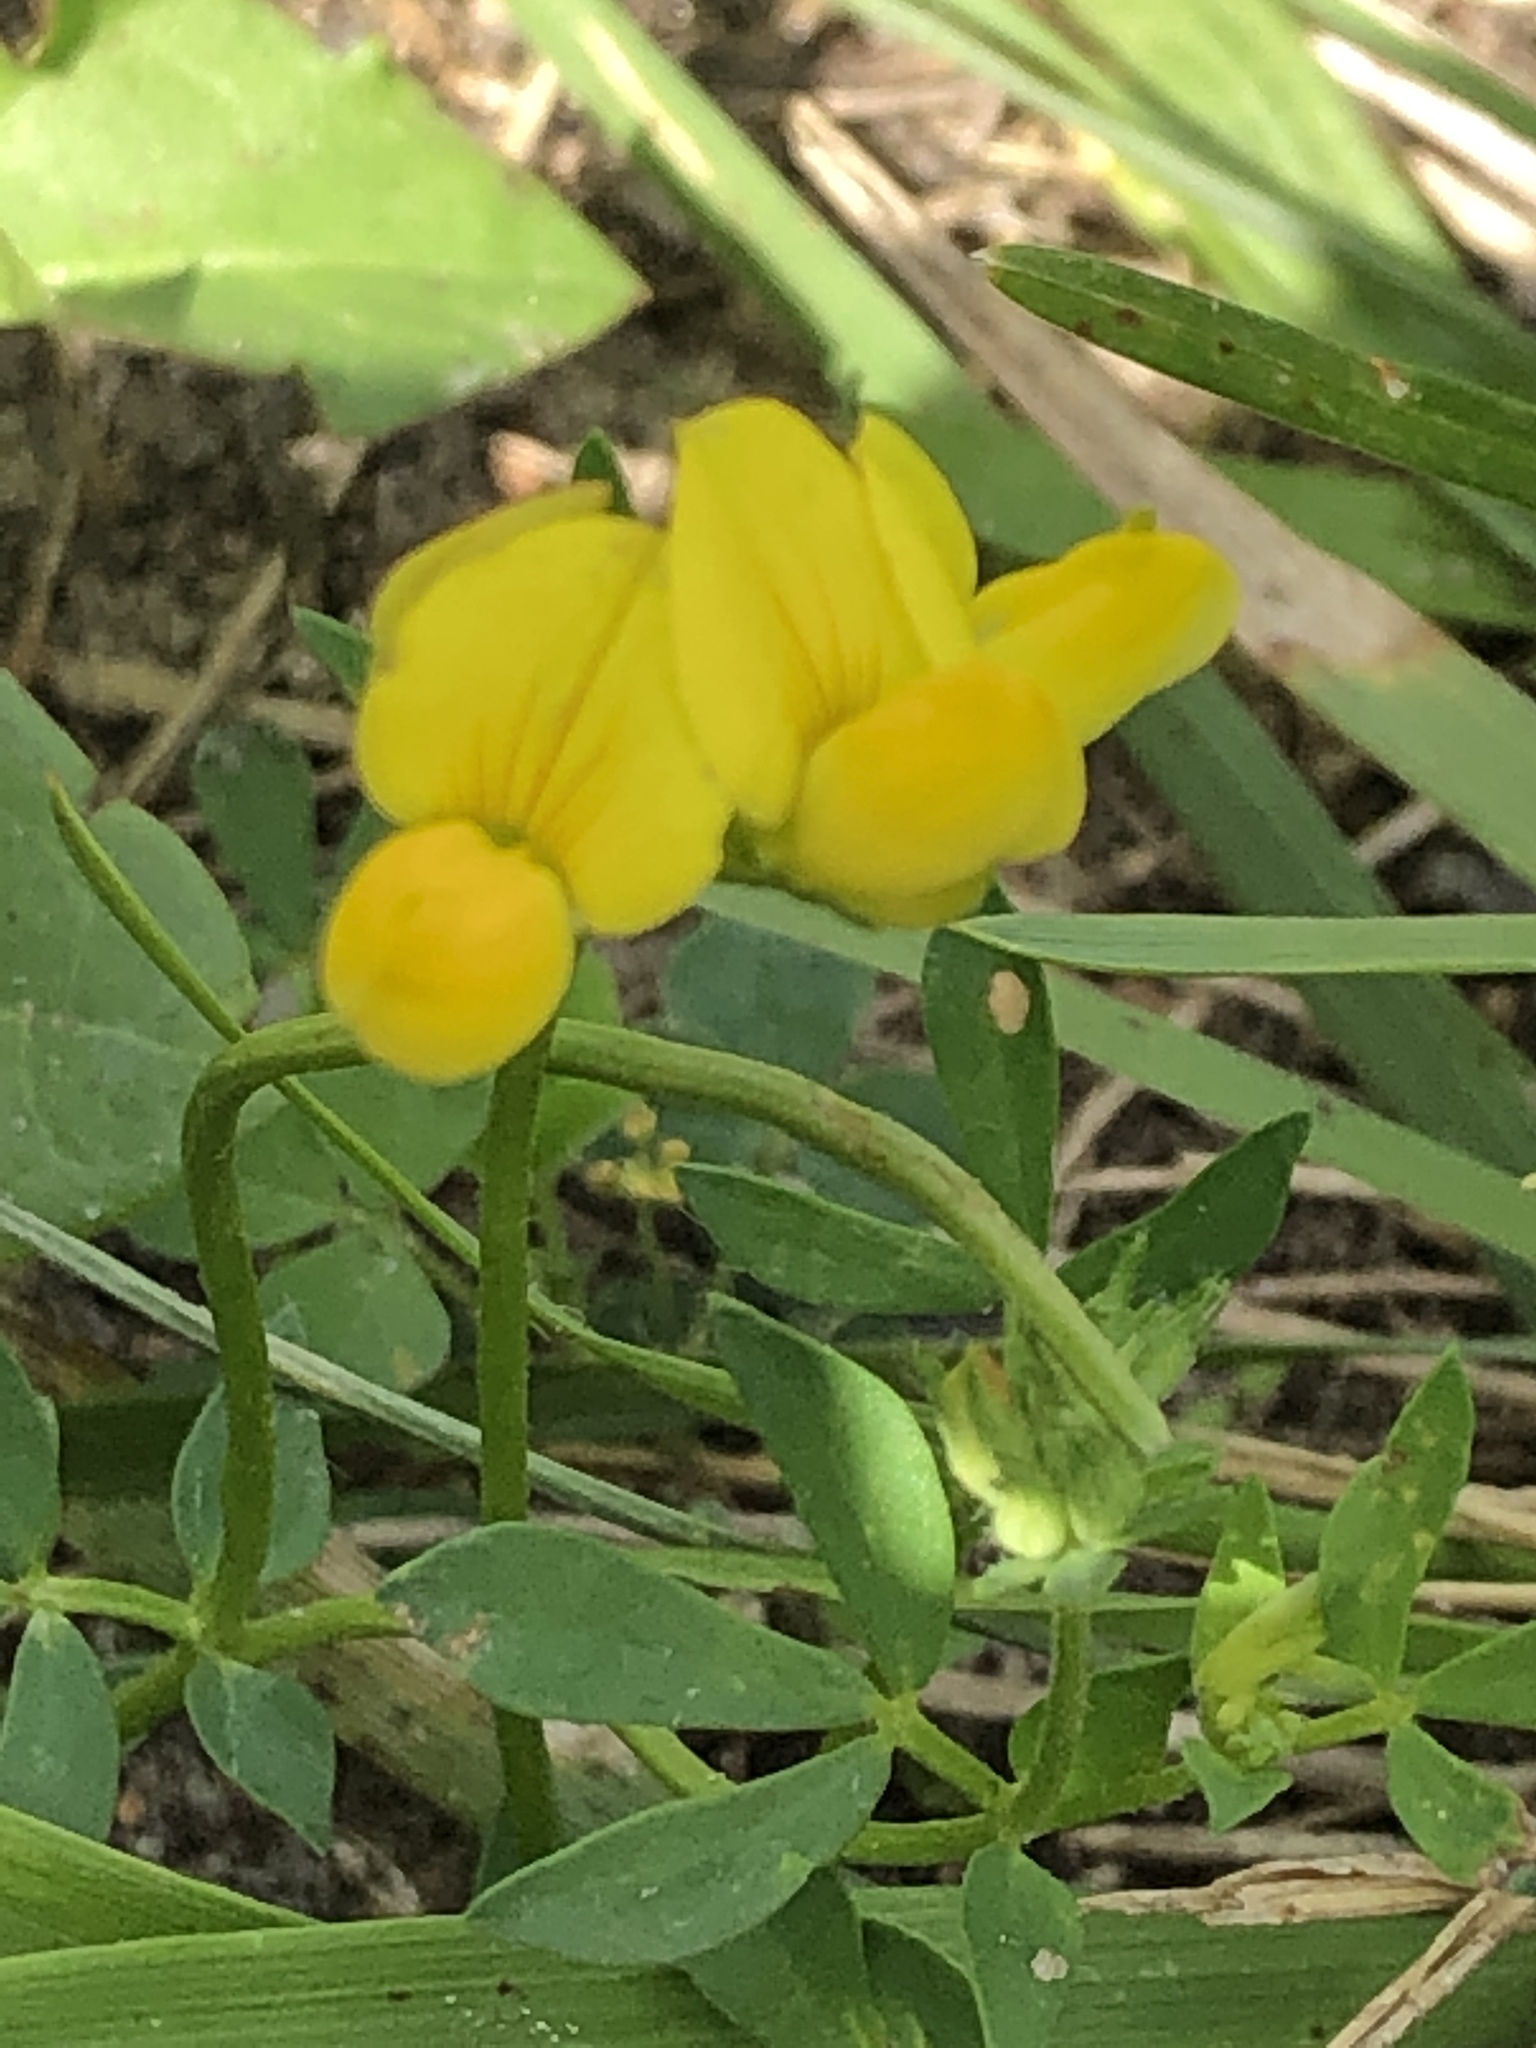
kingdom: Plantae
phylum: Tracheophyta
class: Magnoliopsida
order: Fabales
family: Fabaceae
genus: Lotus
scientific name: Lotus corniculatus
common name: Common bird's-foot-trefoil
